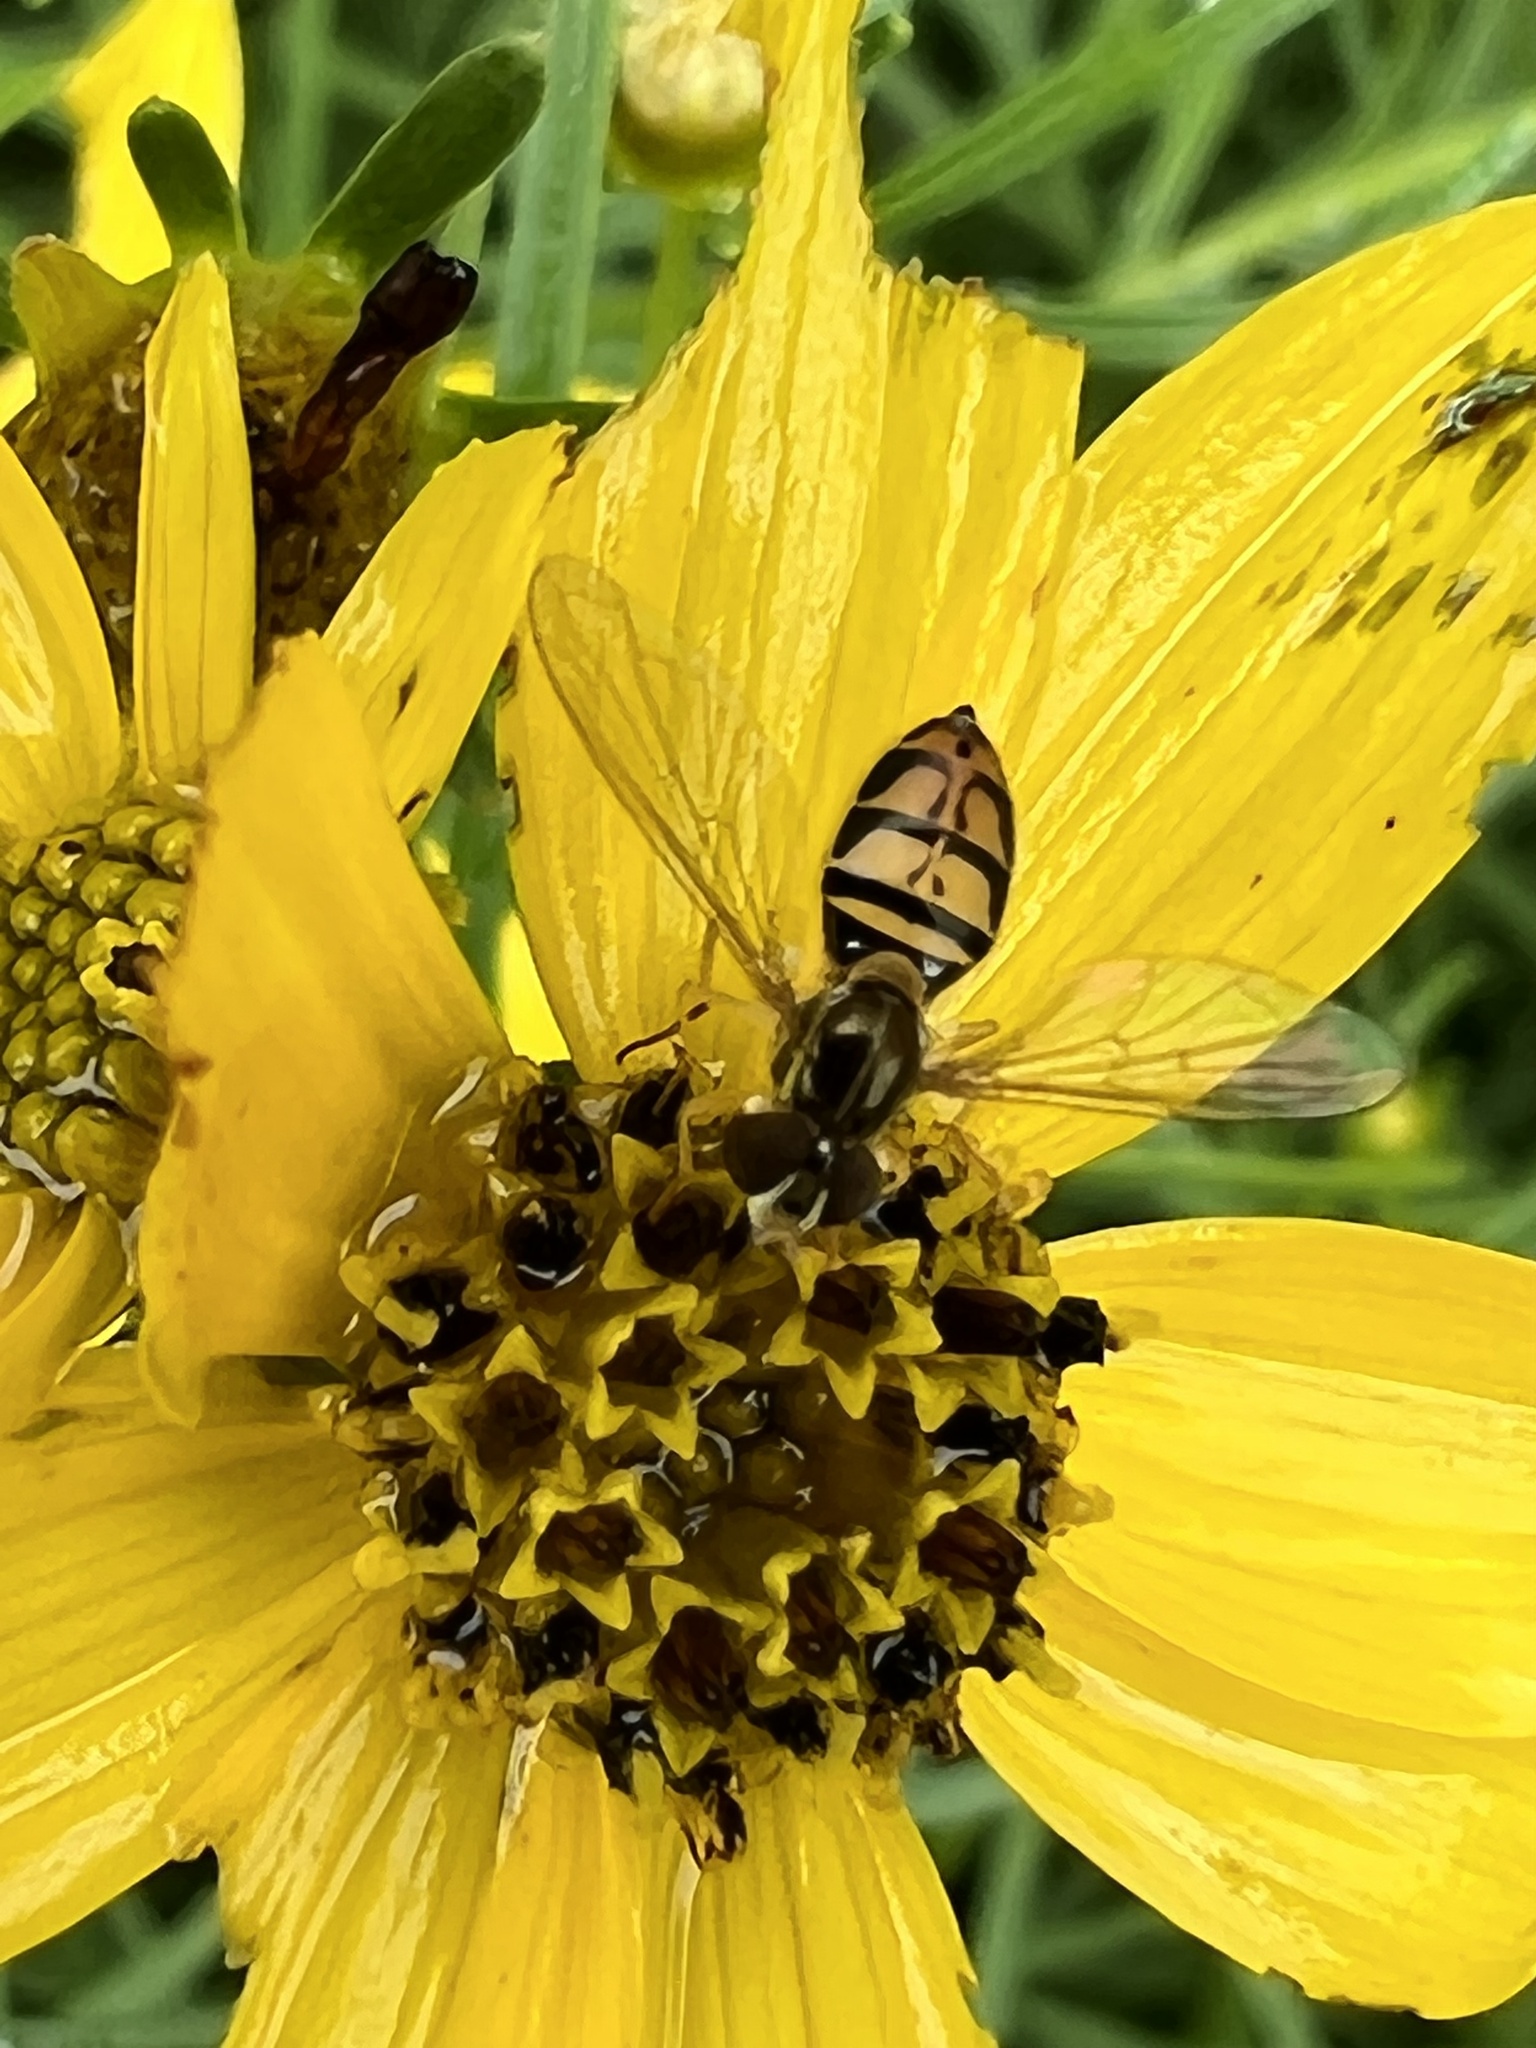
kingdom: Animalia
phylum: Arthropoda
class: Insecta
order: Diptera
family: Syrphidae
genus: Toxomerus
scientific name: Toxomerus marginatus
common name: Syrphid fly
